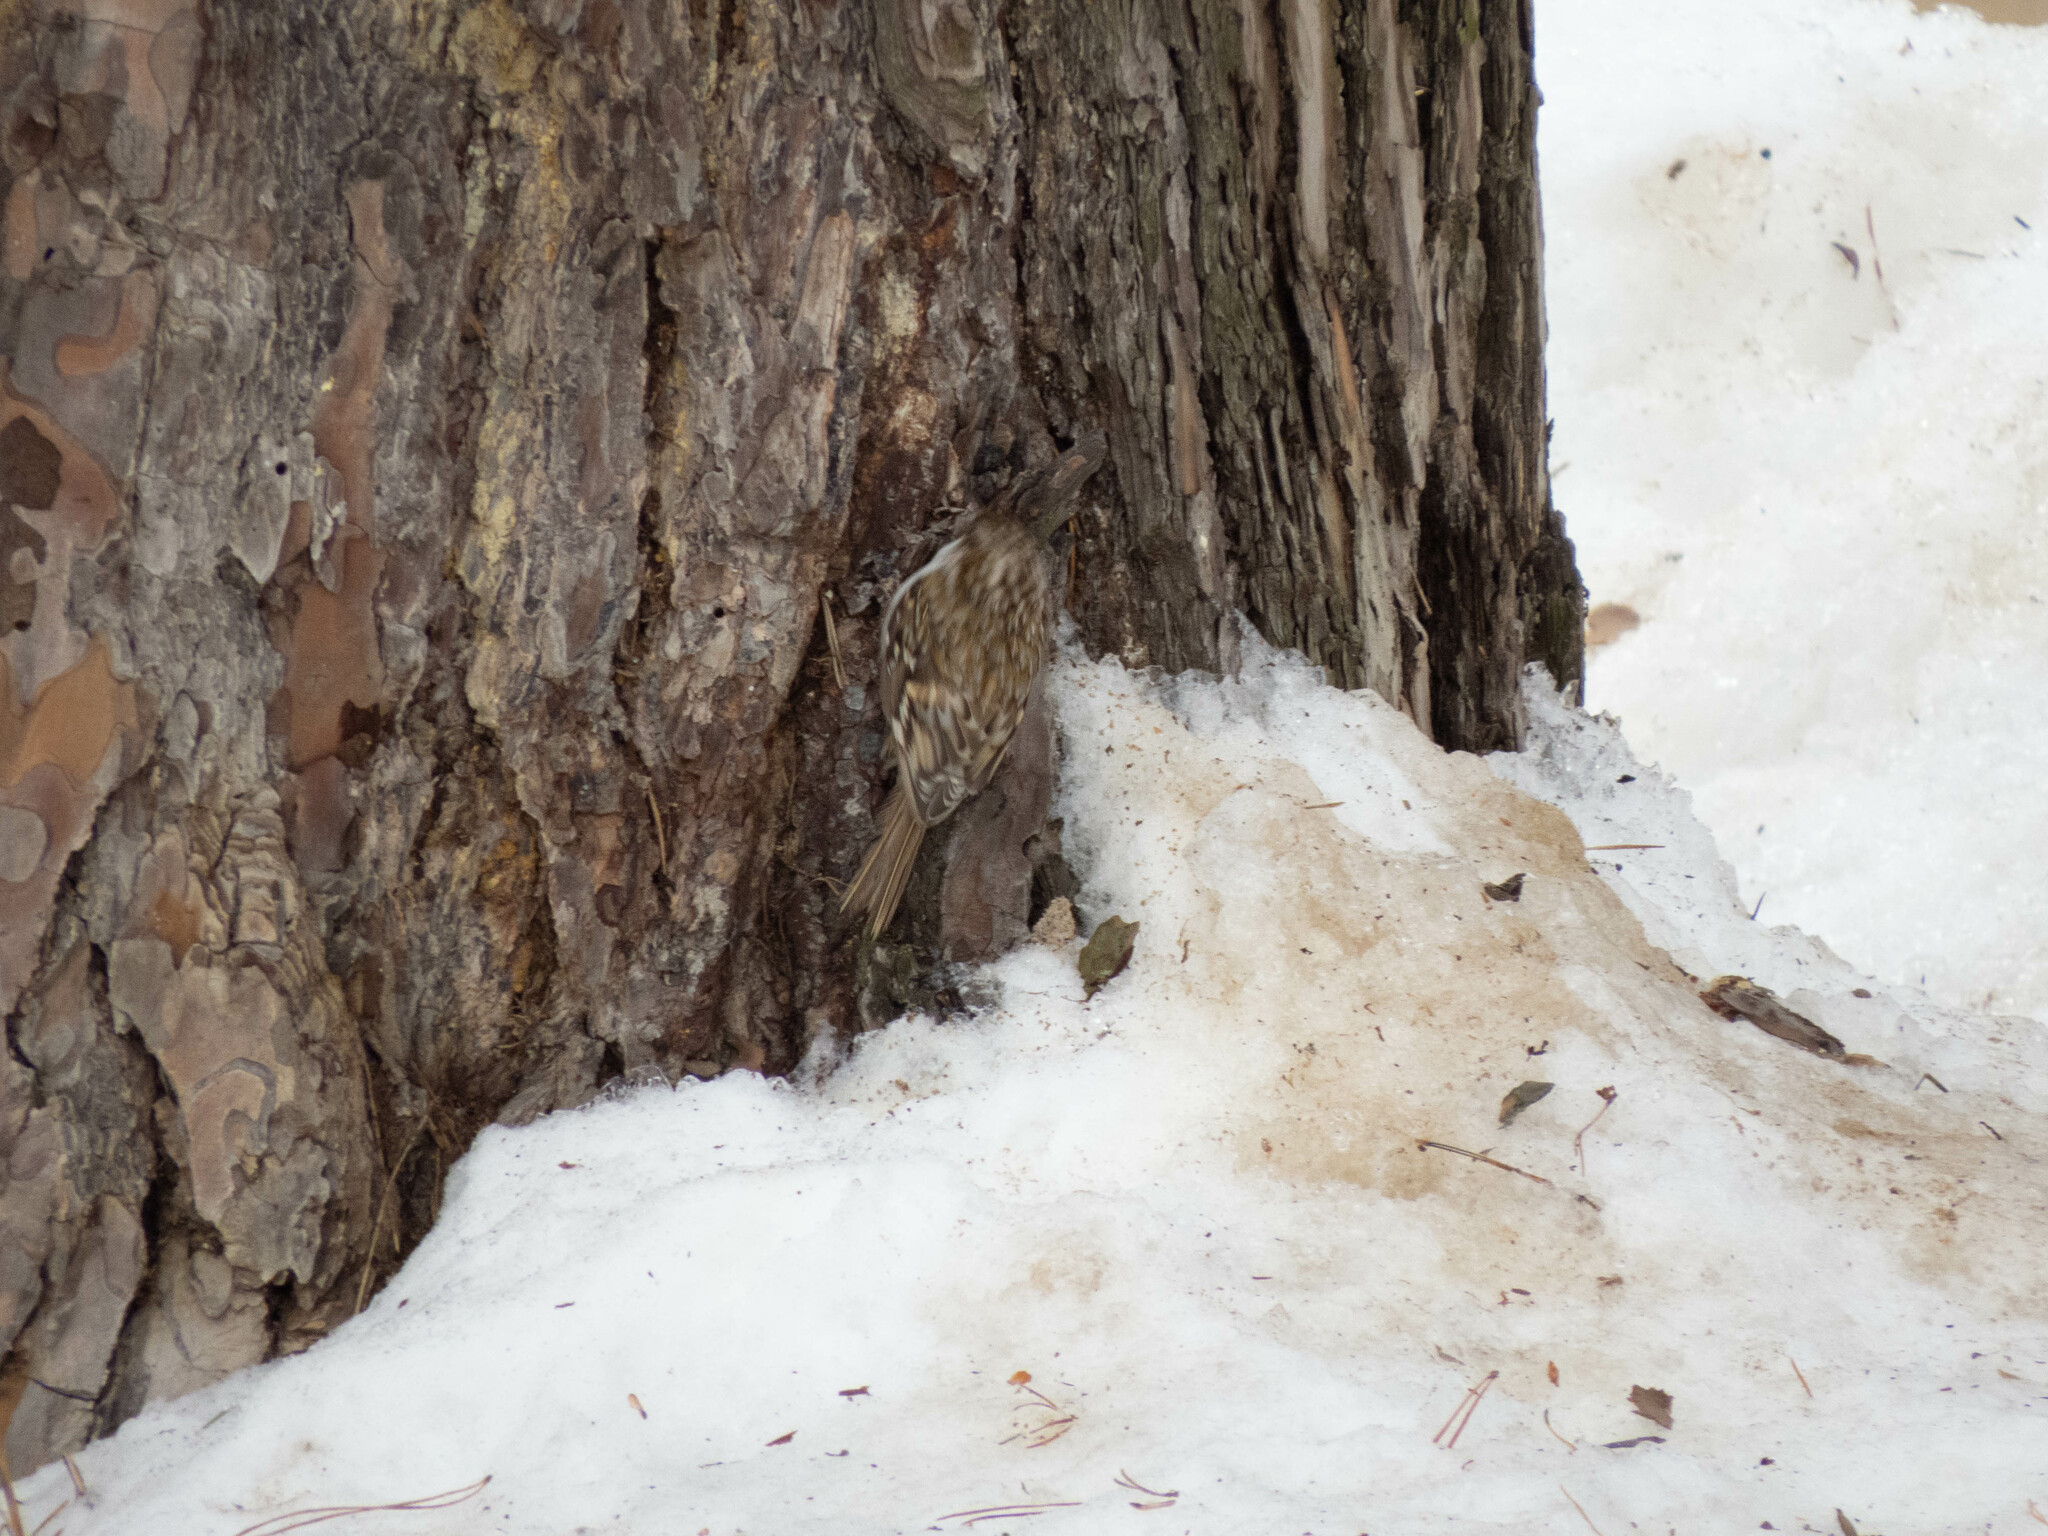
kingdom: Animalia
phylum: Chordata
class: Aves
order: Passeriformes
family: Certhiidae
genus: Certhia
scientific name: Certhia familiaris
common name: Eurasian treecreeper
